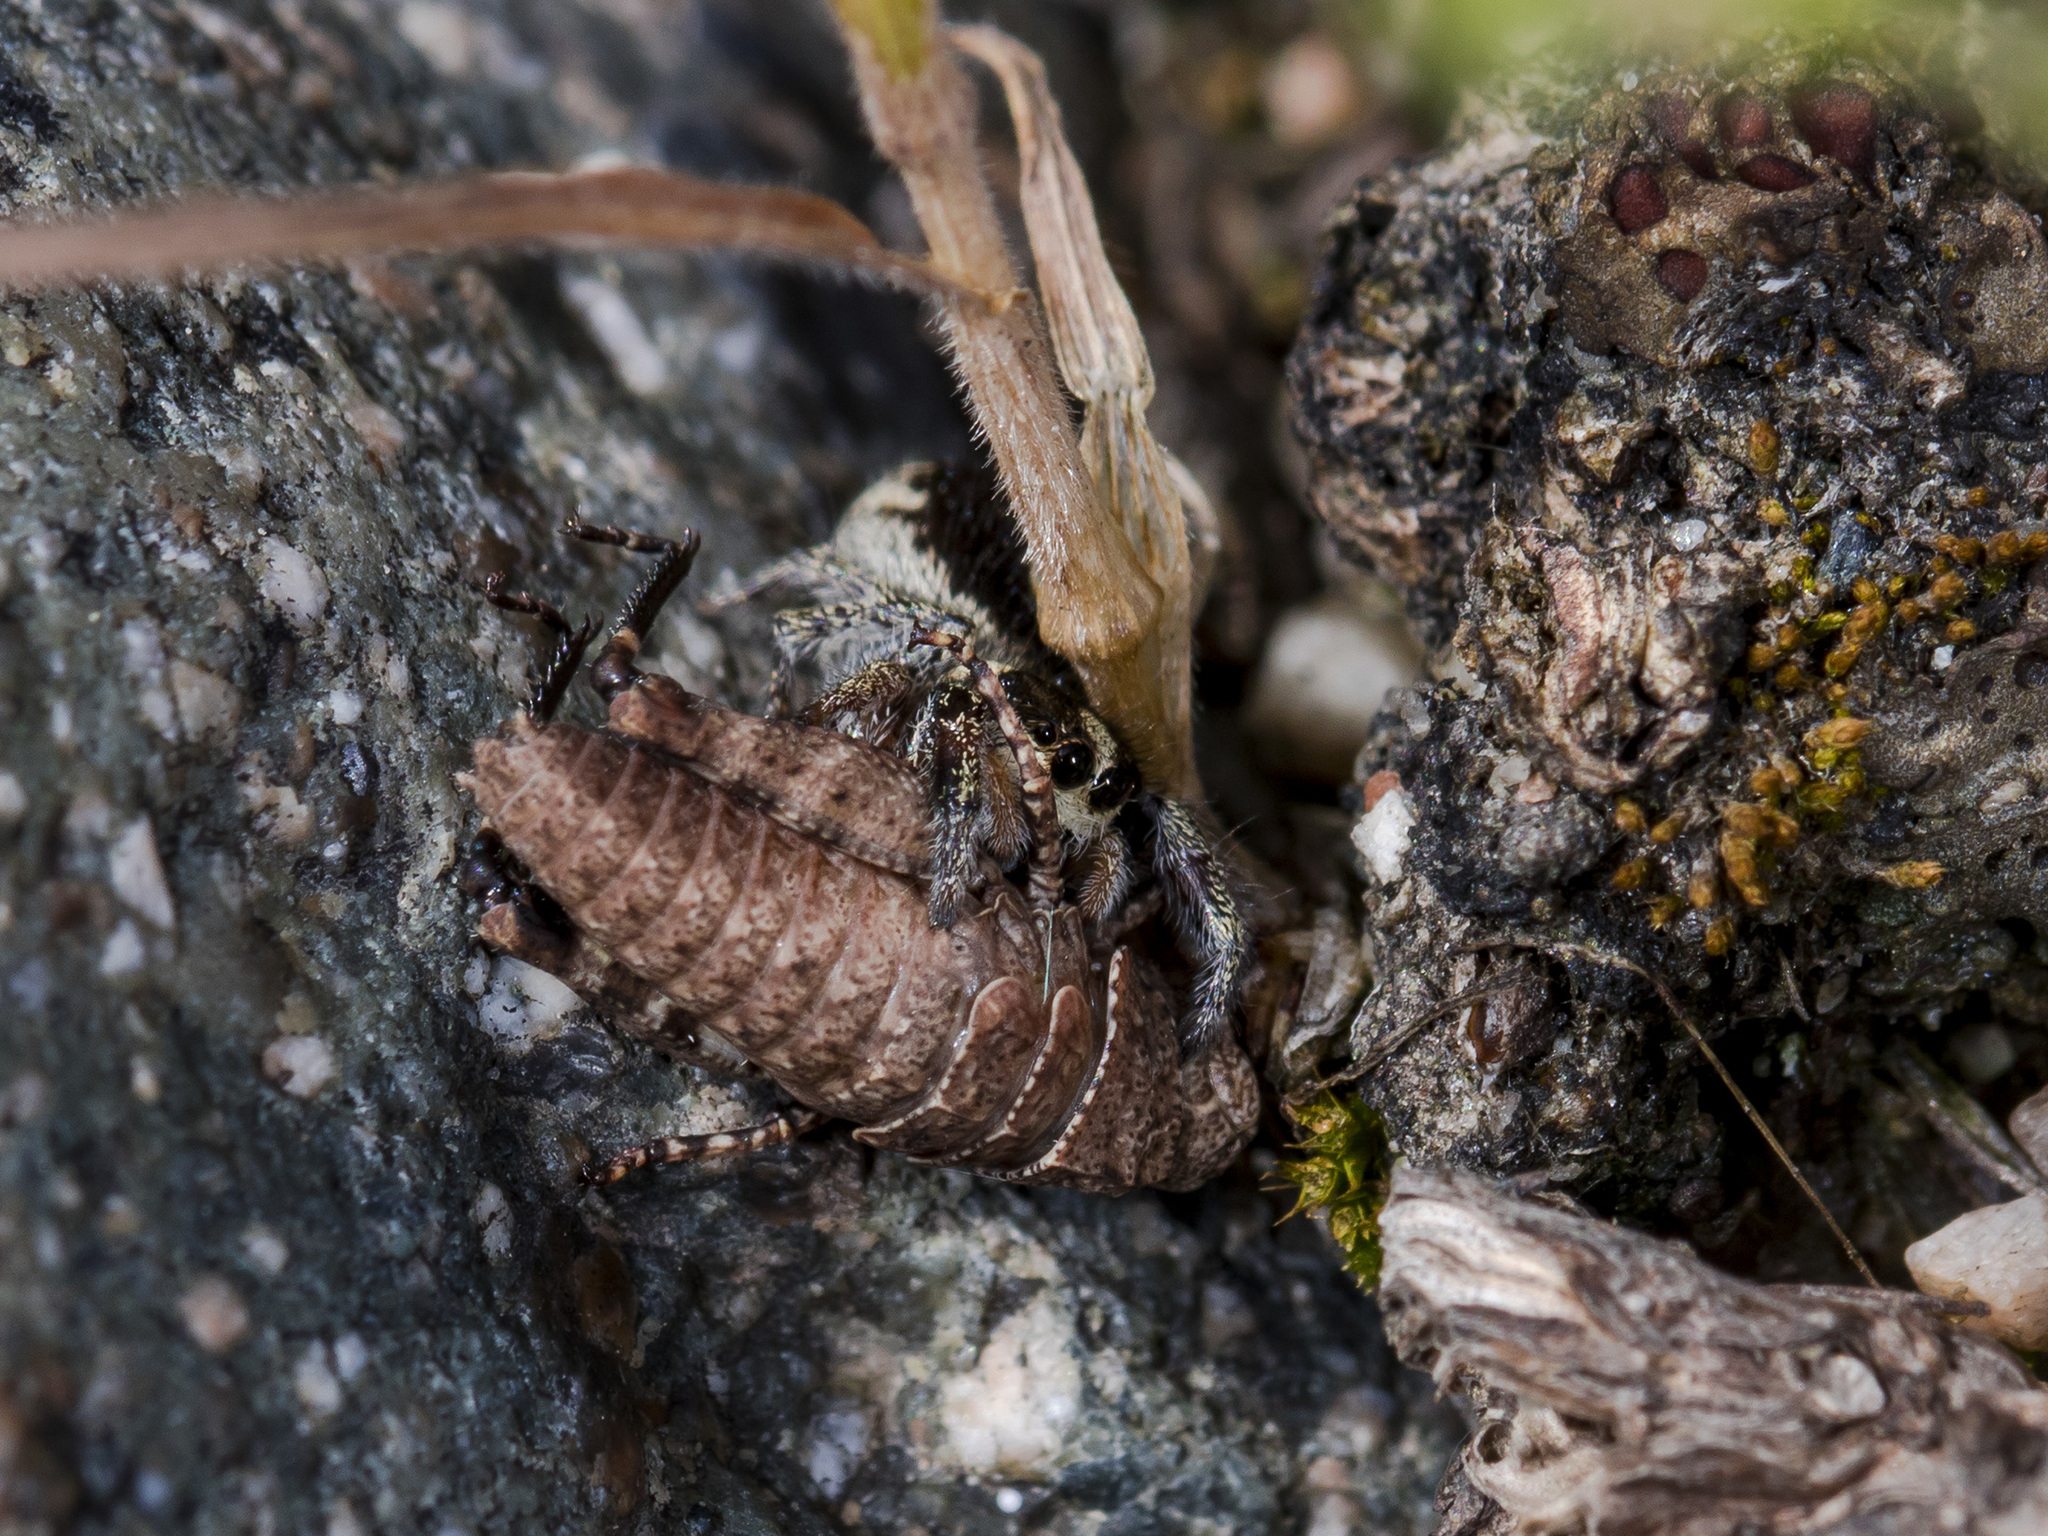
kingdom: Animalia
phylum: Arthropoda
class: Arachnida
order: Araneae
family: Salticidae
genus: Pellenes
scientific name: Pellenes allegrii
